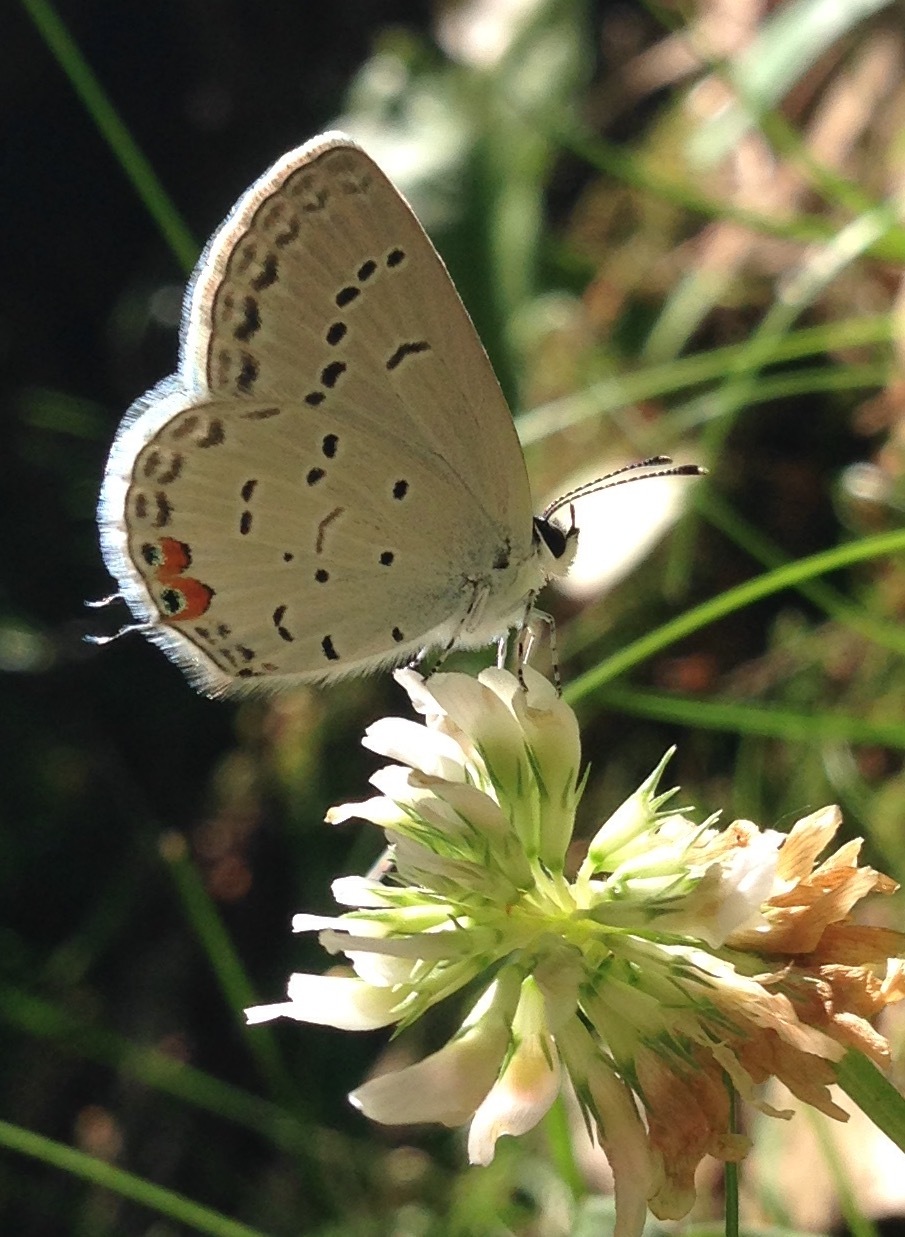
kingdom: Animalia
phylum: Arthropoda
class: Insecta
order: Lepidoptera
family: Lycaenidae
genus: Elkalyce
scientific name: Elkalyce comyntas
